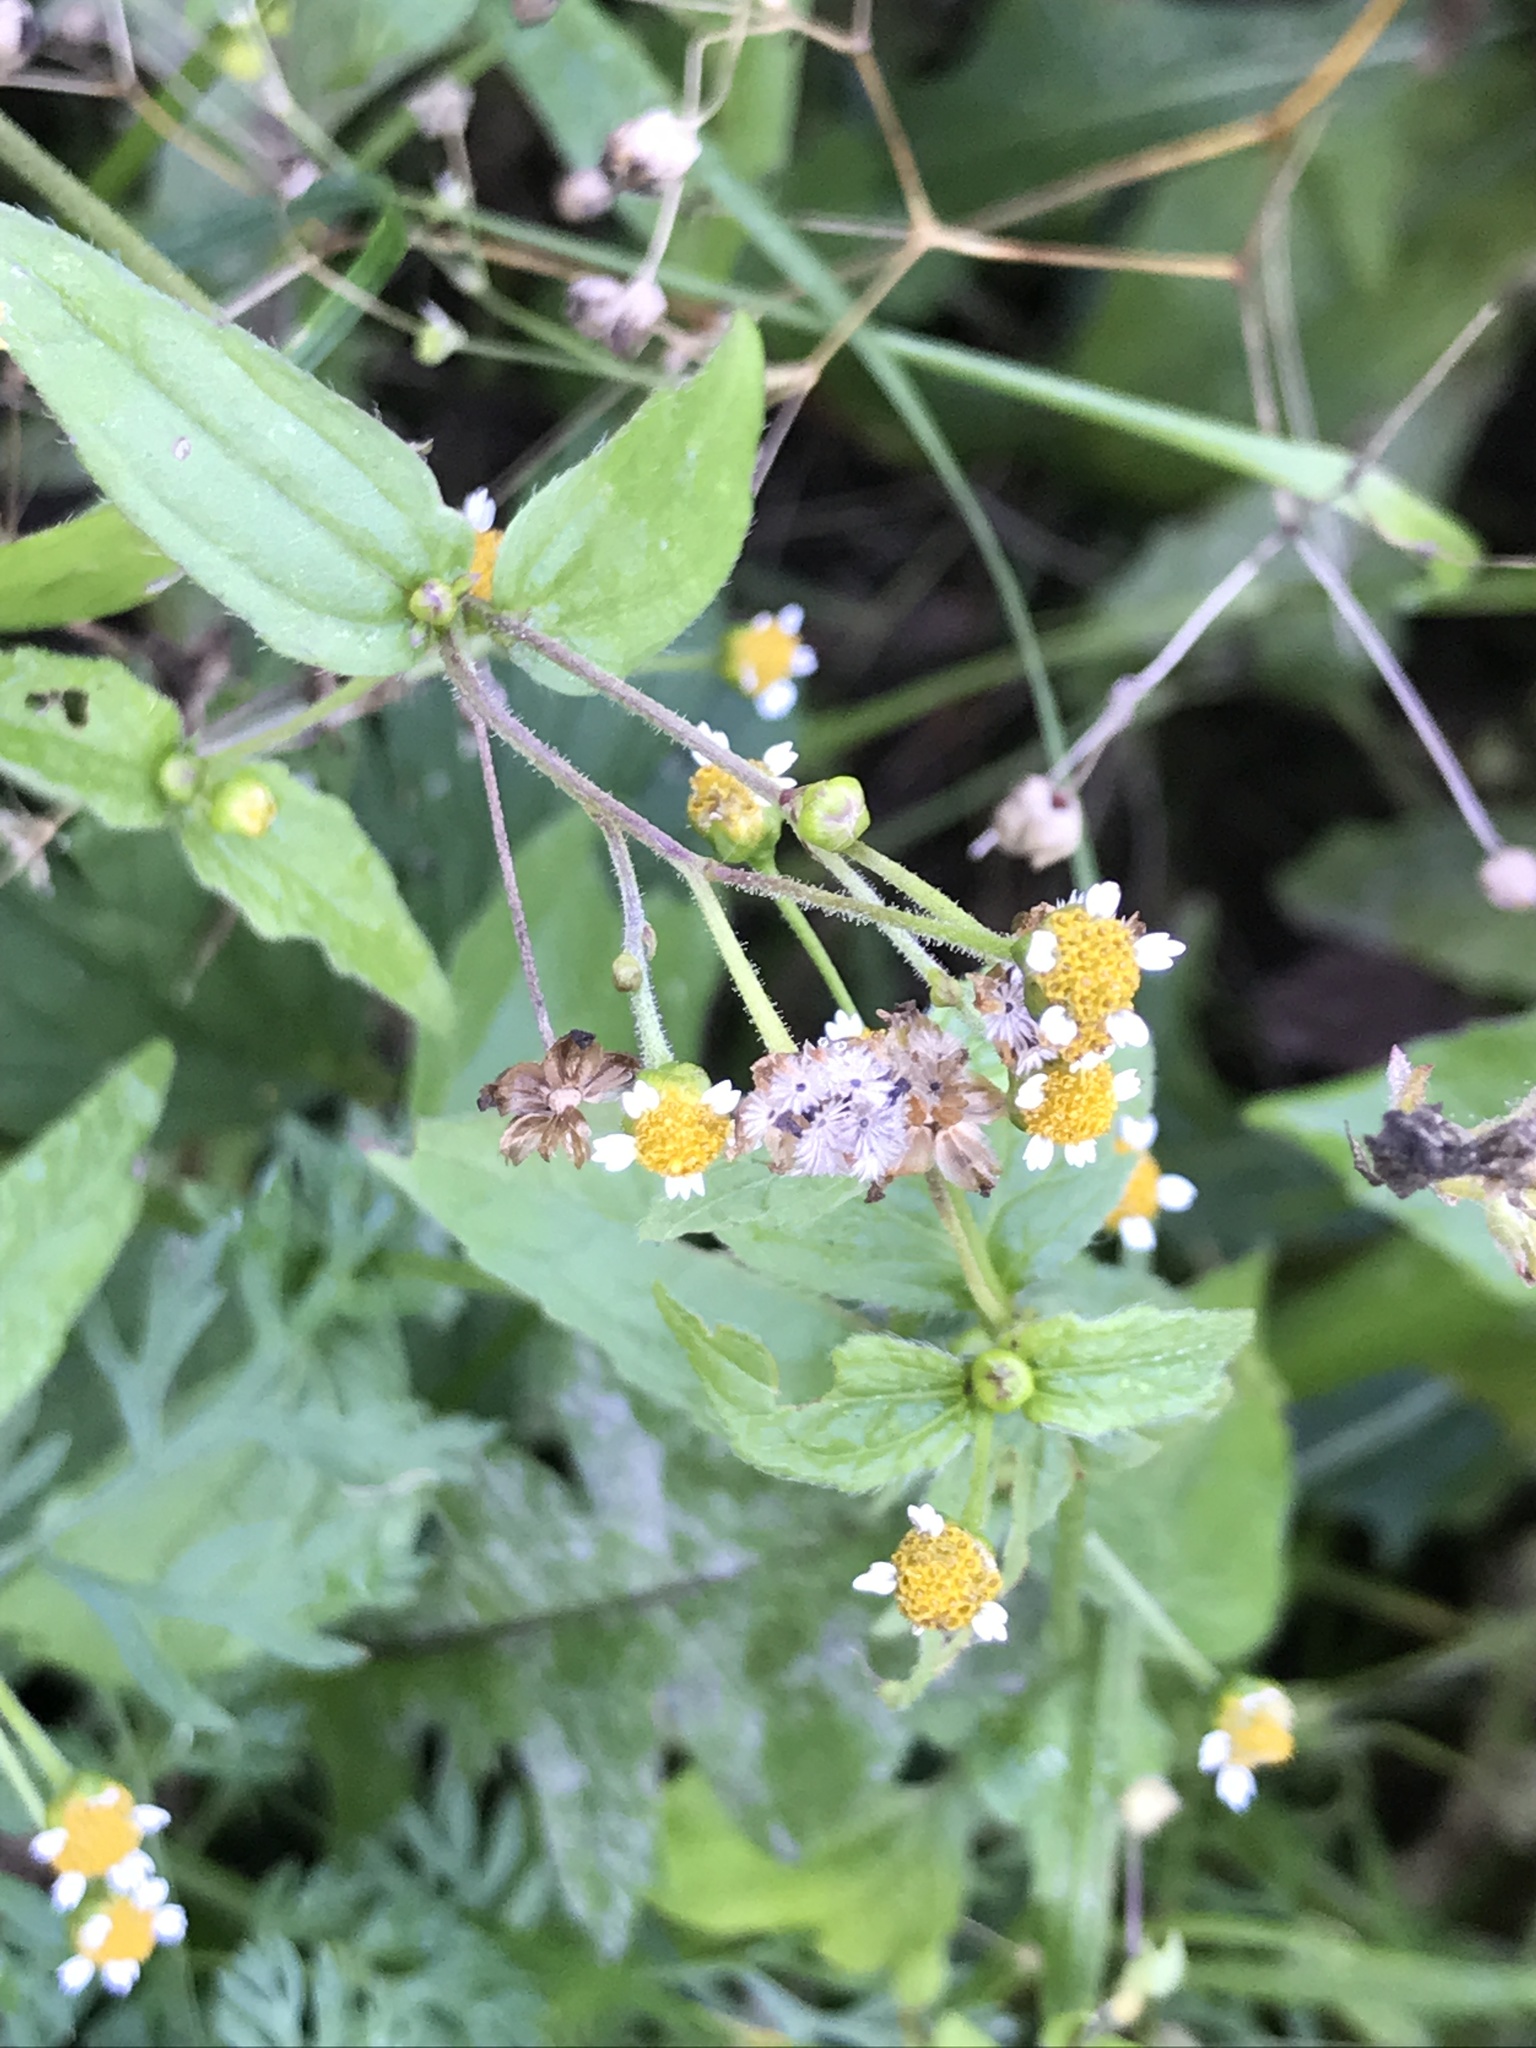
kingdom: Plantae
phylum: Tracheophyta
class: Magnoliopsida
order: Asterales
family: Asteraceae
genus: Galinsoga
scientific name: Galinsoga quadriradiata
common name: Shaggy soldier
